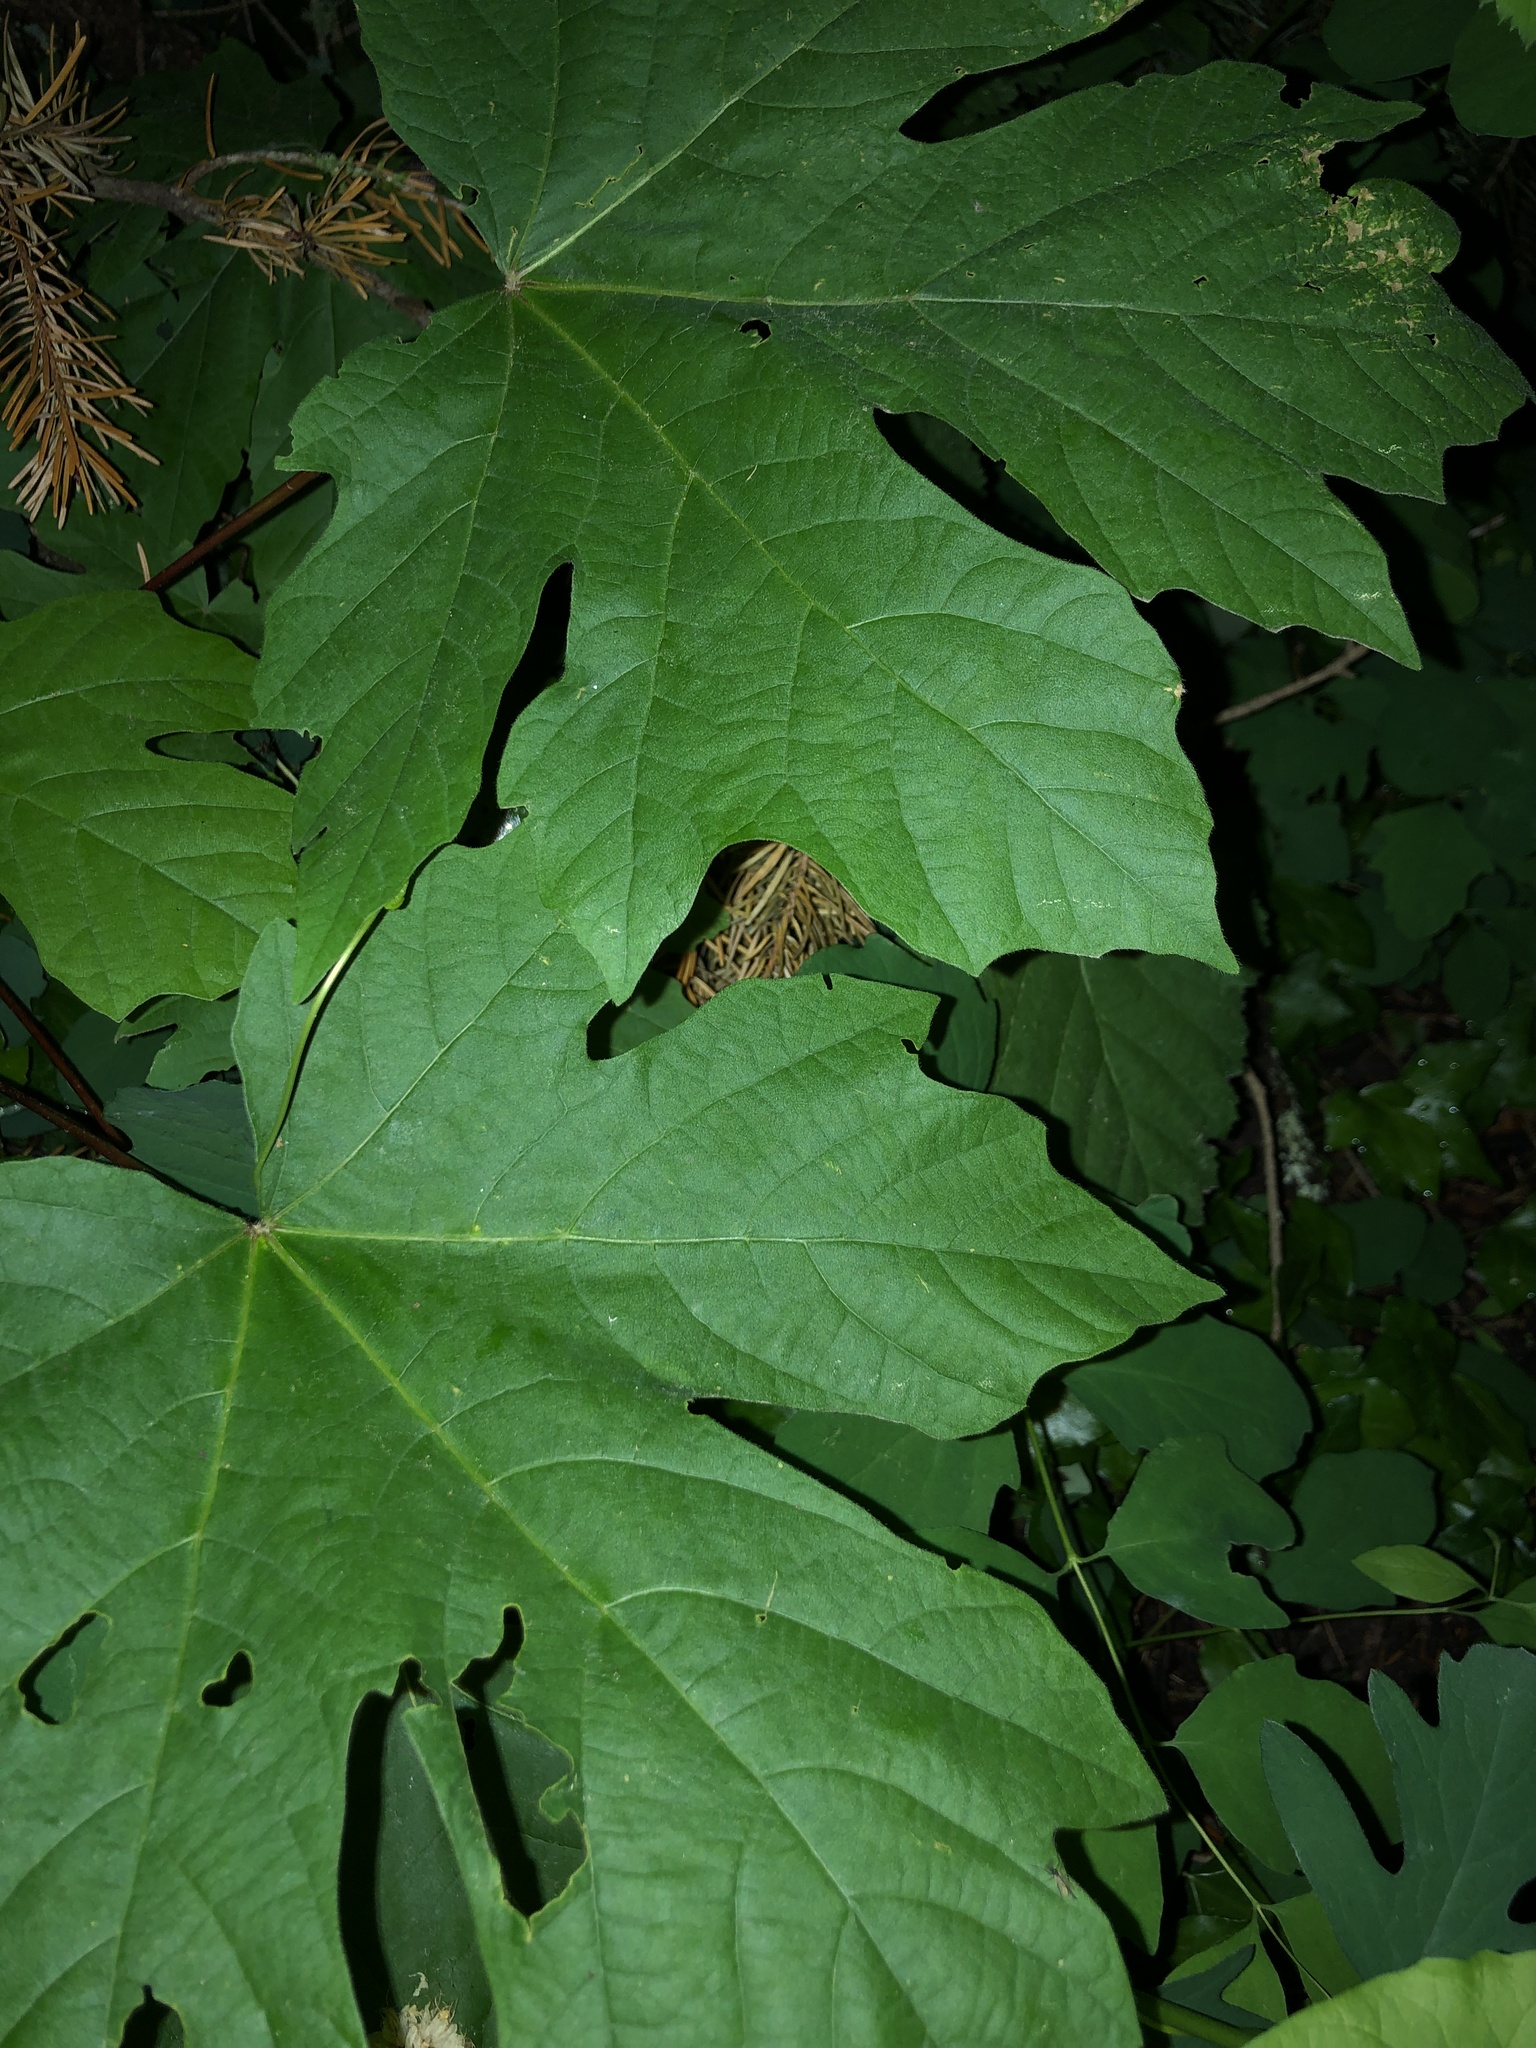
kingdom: Plantae
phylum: Tracheophyta
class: Magnoliopsida
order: Sapindales
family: Sapindaceae
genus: Acer
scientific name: Acer macrophyllum
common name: Oregon maple
